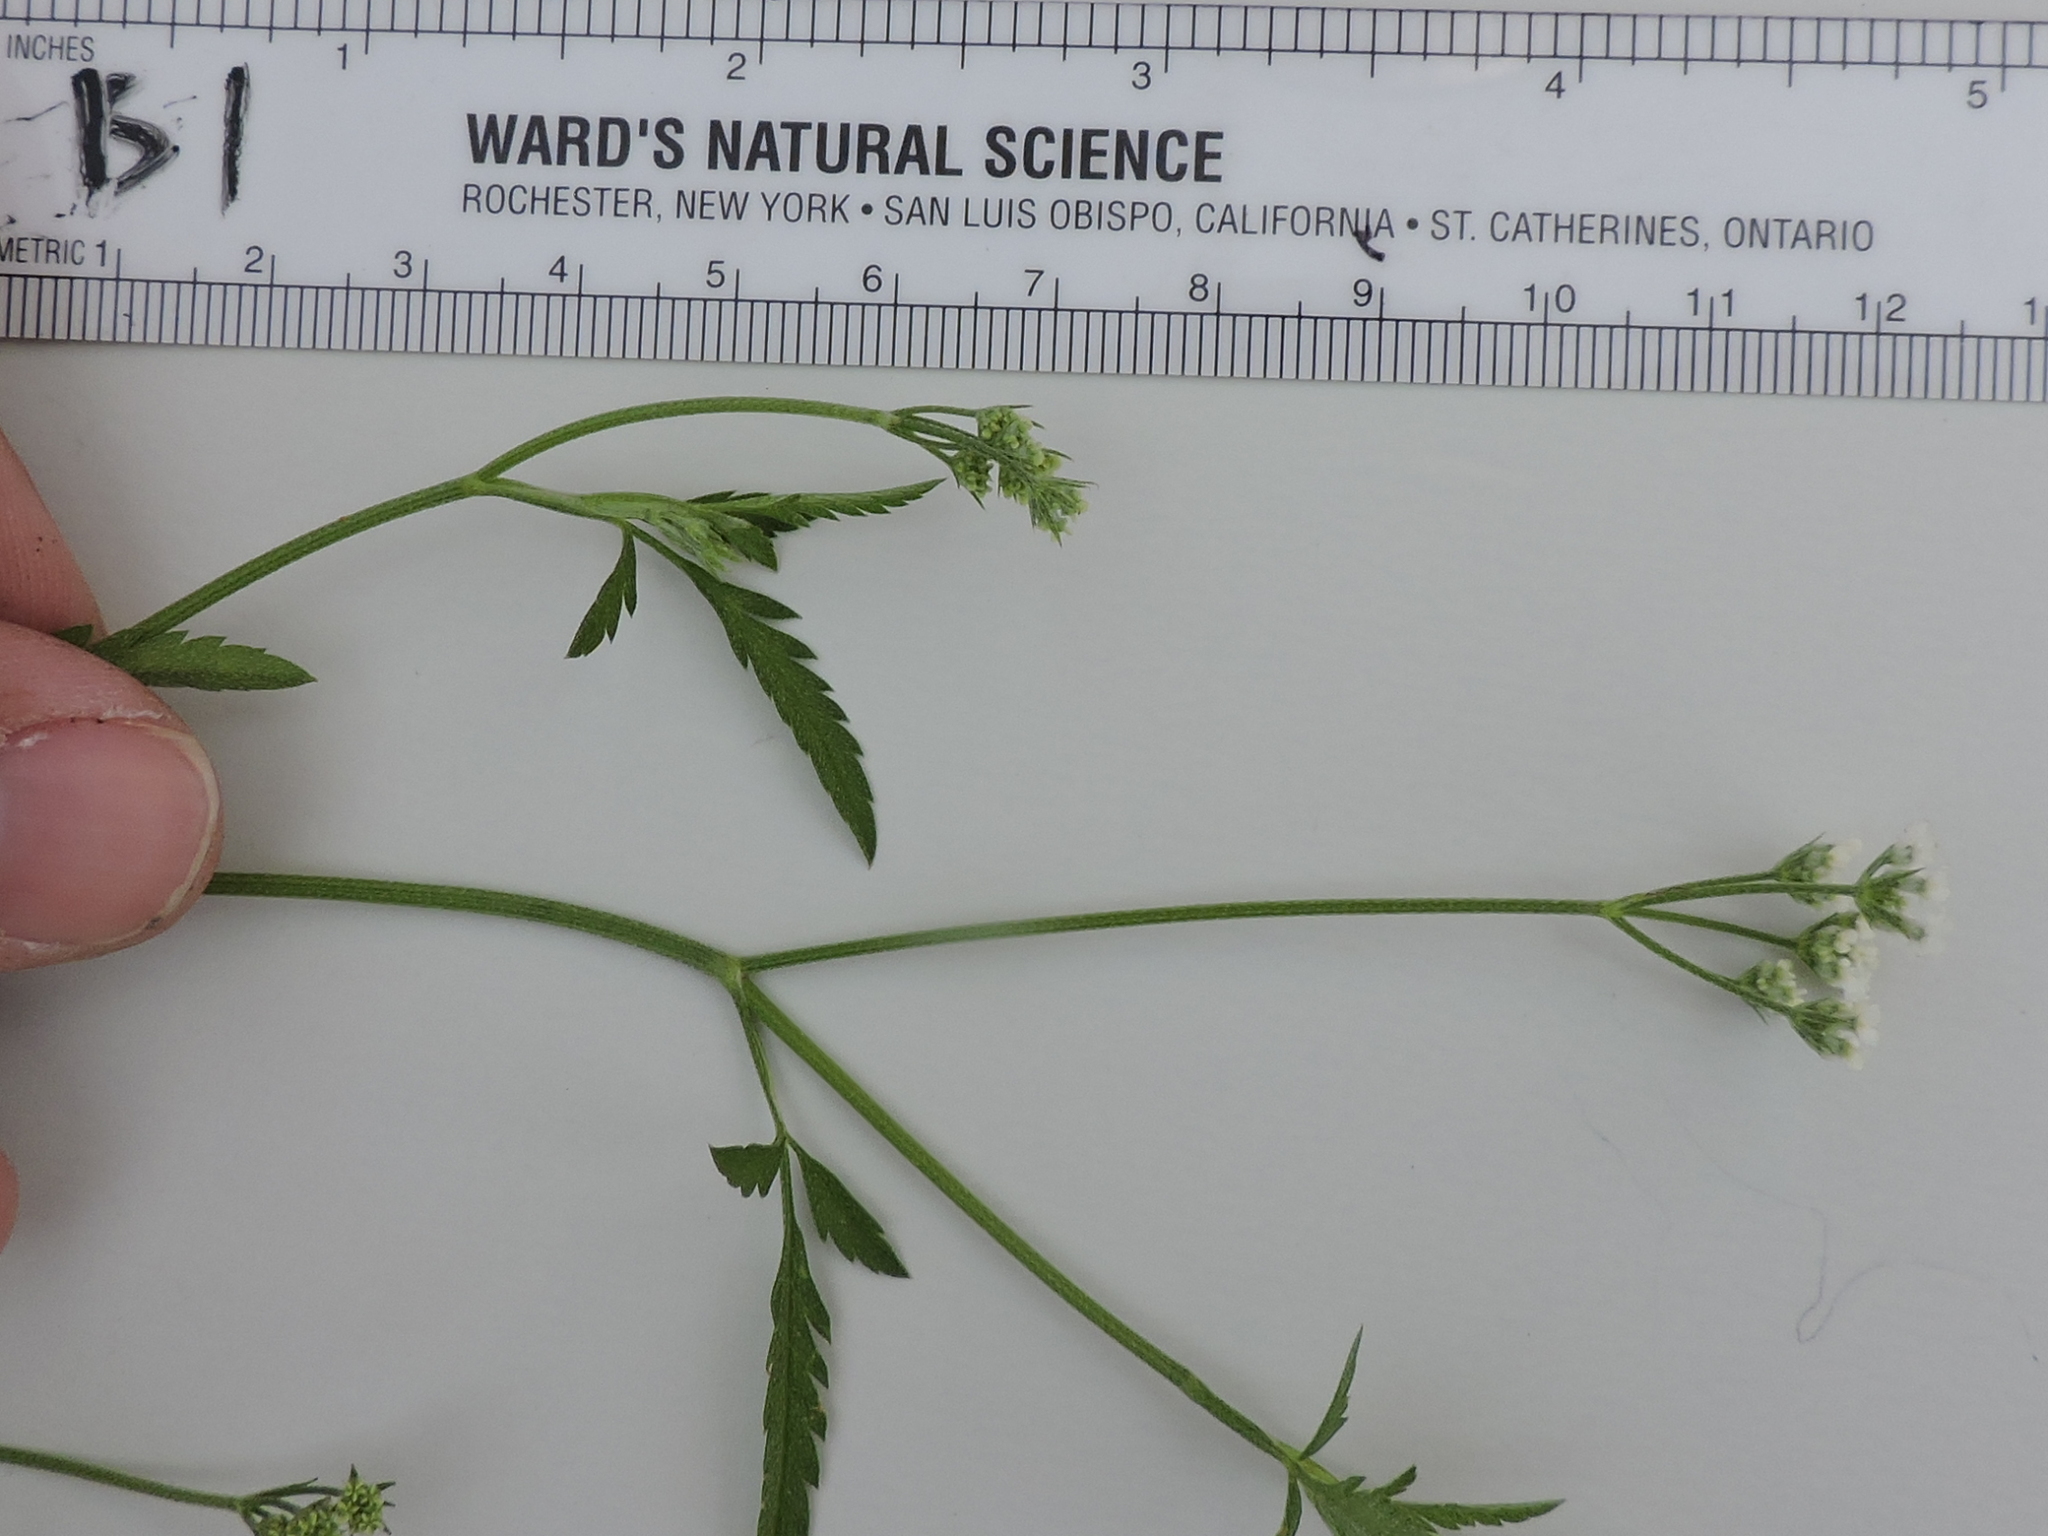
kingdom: Plantae
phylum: Tracheophyta
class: Magnoliopsida
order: Apiales
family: Apiaceae
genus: Torilis
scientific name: Torilis arvensis
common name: Spreading hedge-parsley
